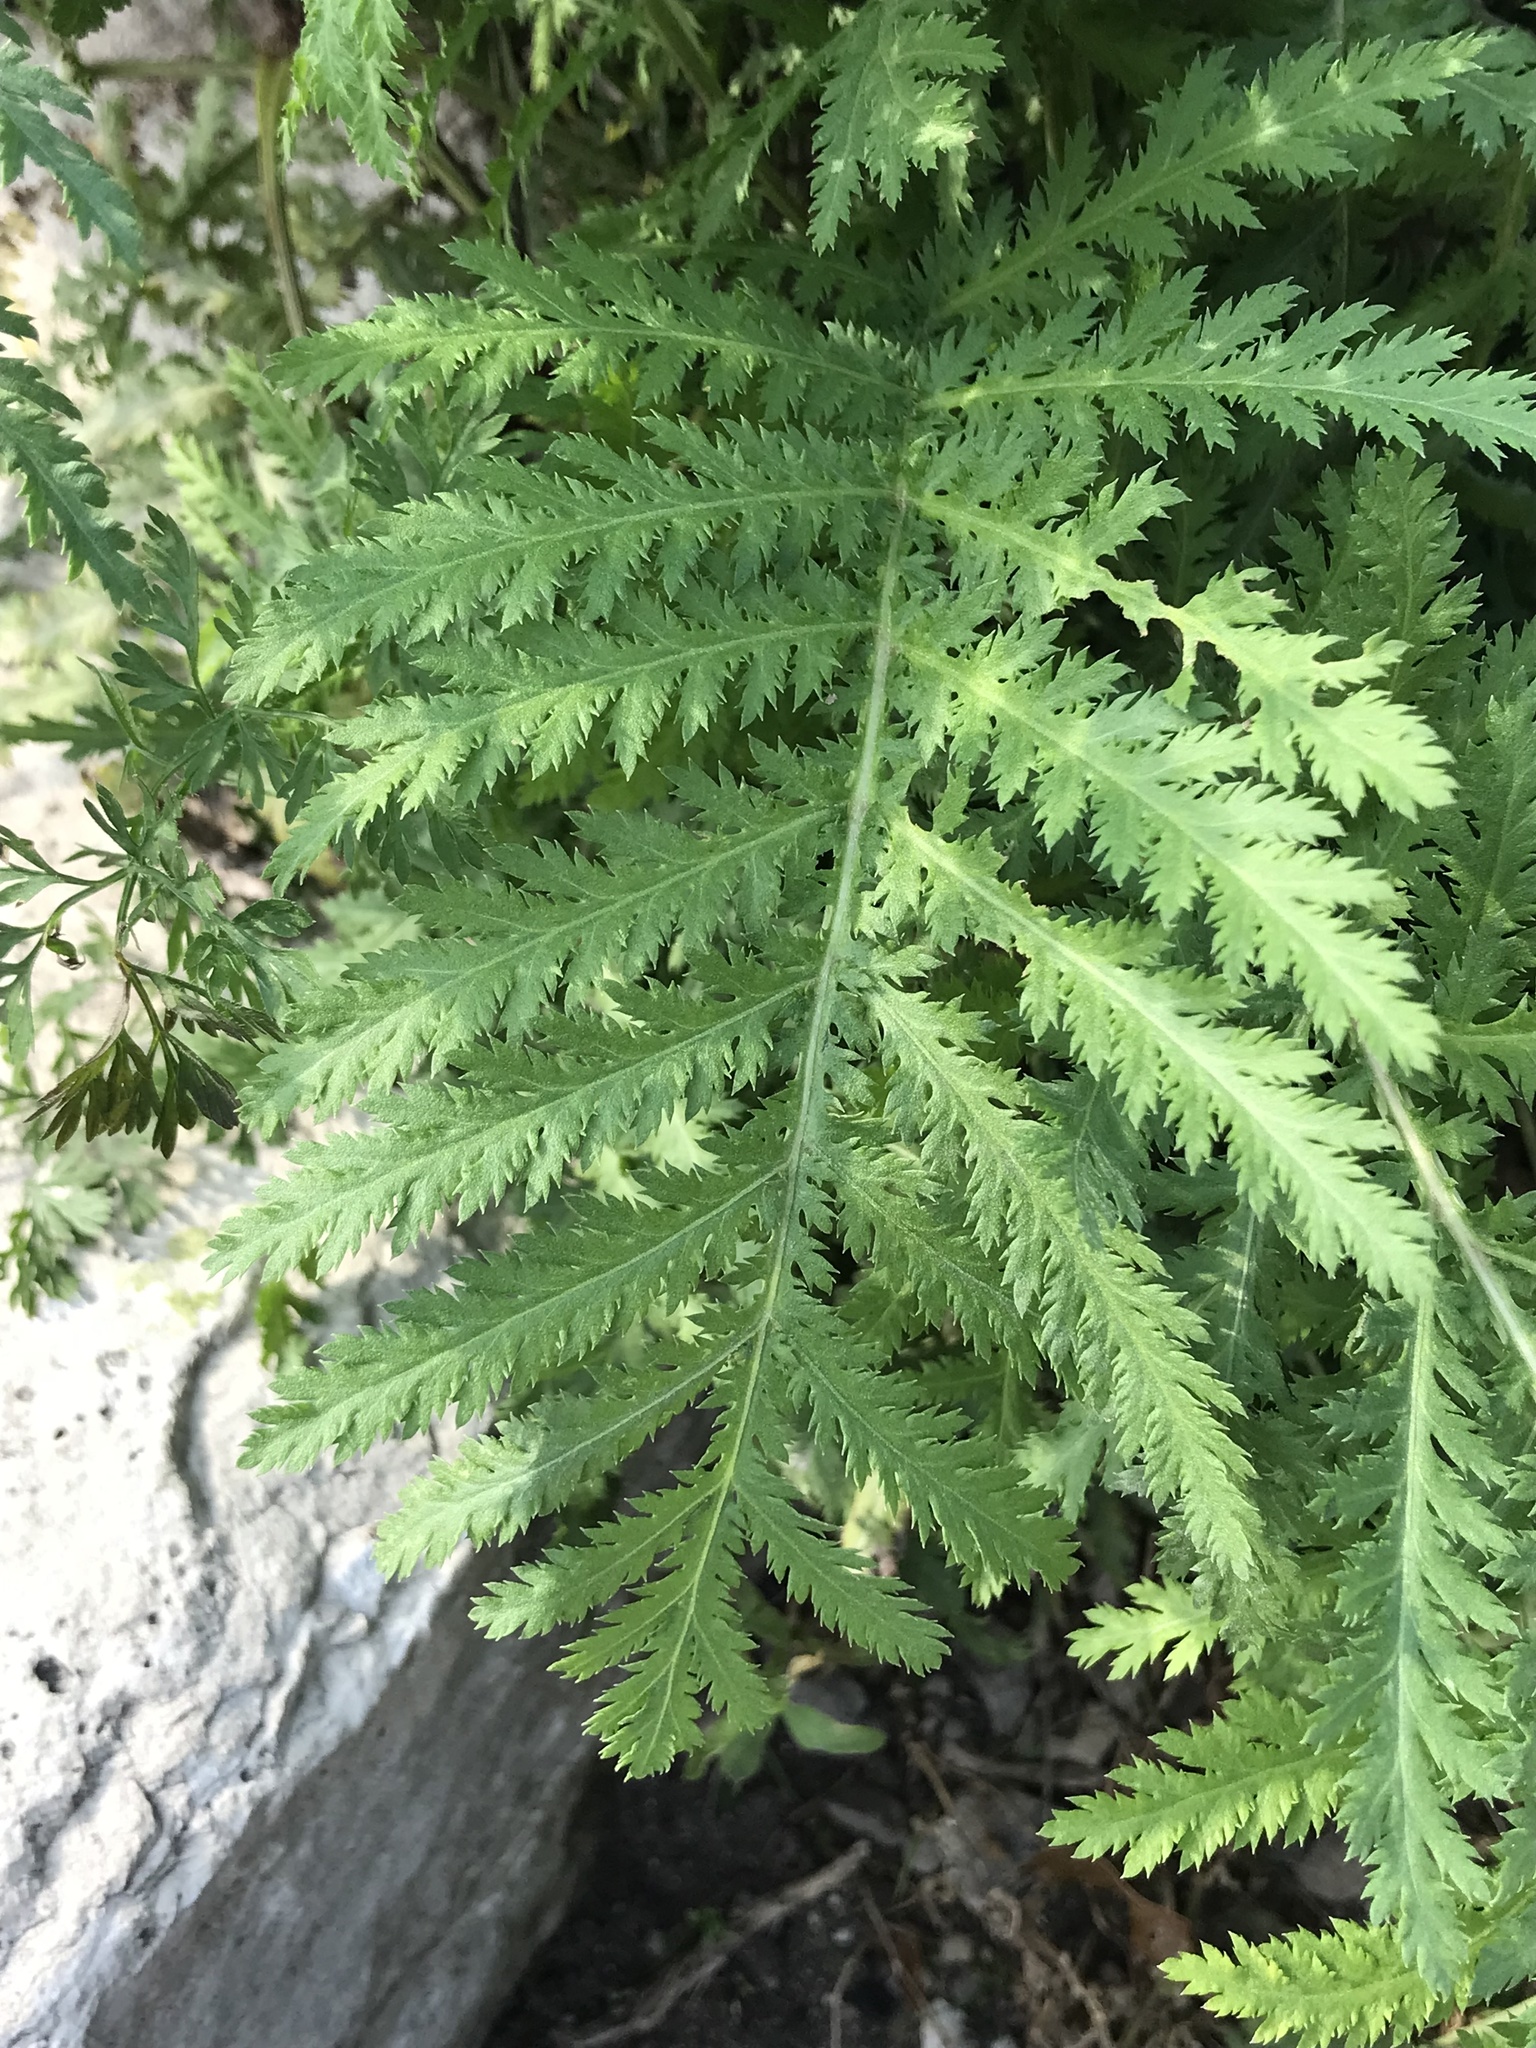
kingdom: Plantae
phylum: Tracheophyta
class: Magnoliopsida
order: Asterales
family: Asteraceae
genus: Tanacetum
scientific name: Tanacetum vulgare
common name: Common tansy
